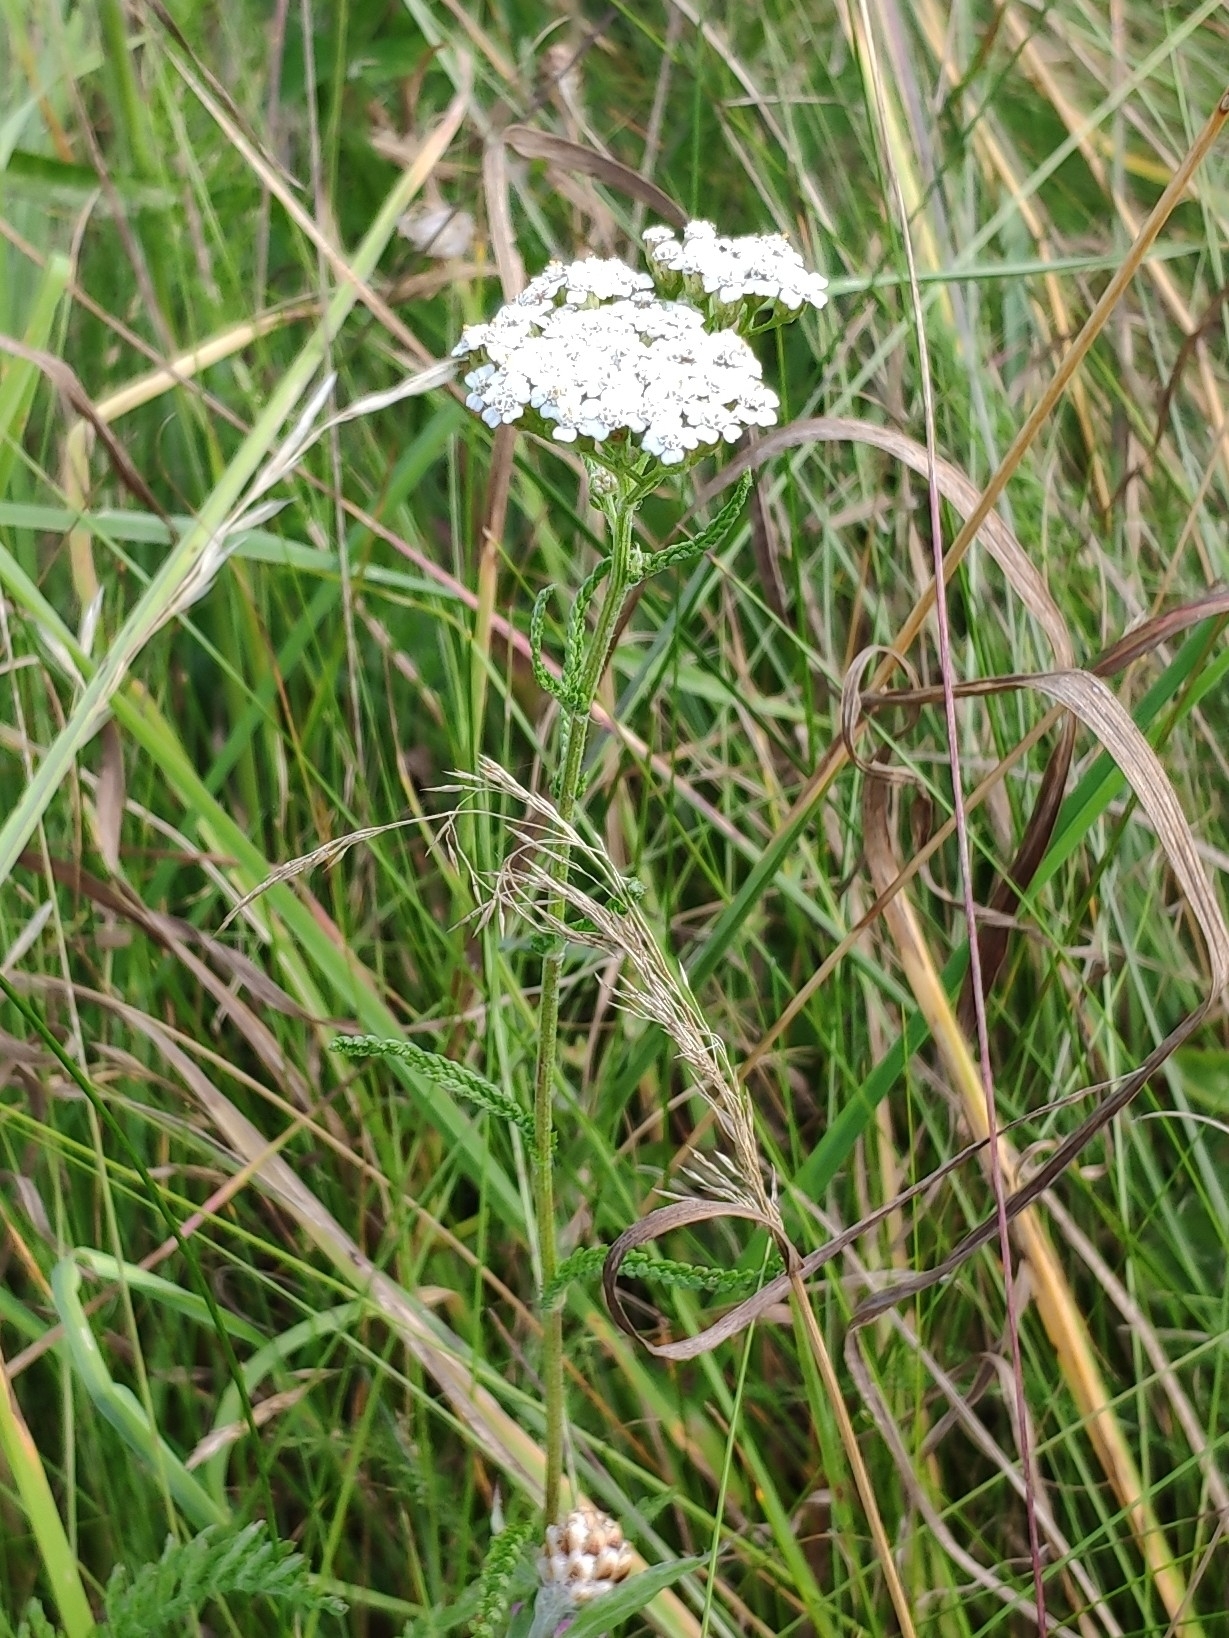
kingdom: Plantae
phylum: Tracheophyta
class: Magnoliopsida
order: Asterales
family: Asteraceae
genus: Achillea
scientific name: Achillea millefolium
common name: Yarrow
